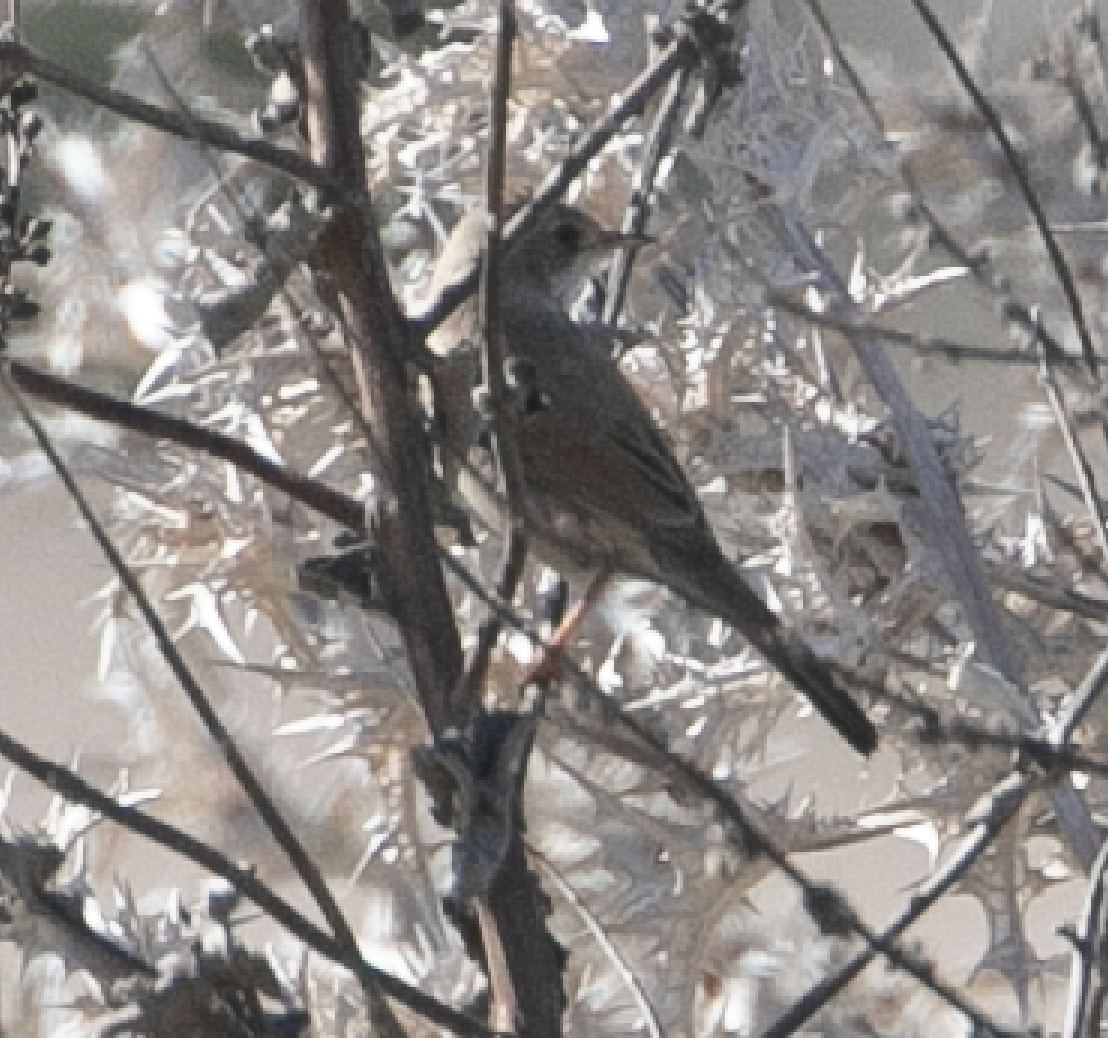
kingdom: Animalia
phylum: Chordata
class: Aves
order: Passeriformes
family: Sylviidae
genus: Sylvia
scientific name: Sylvia conspicillata
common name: Spectacled warbler
